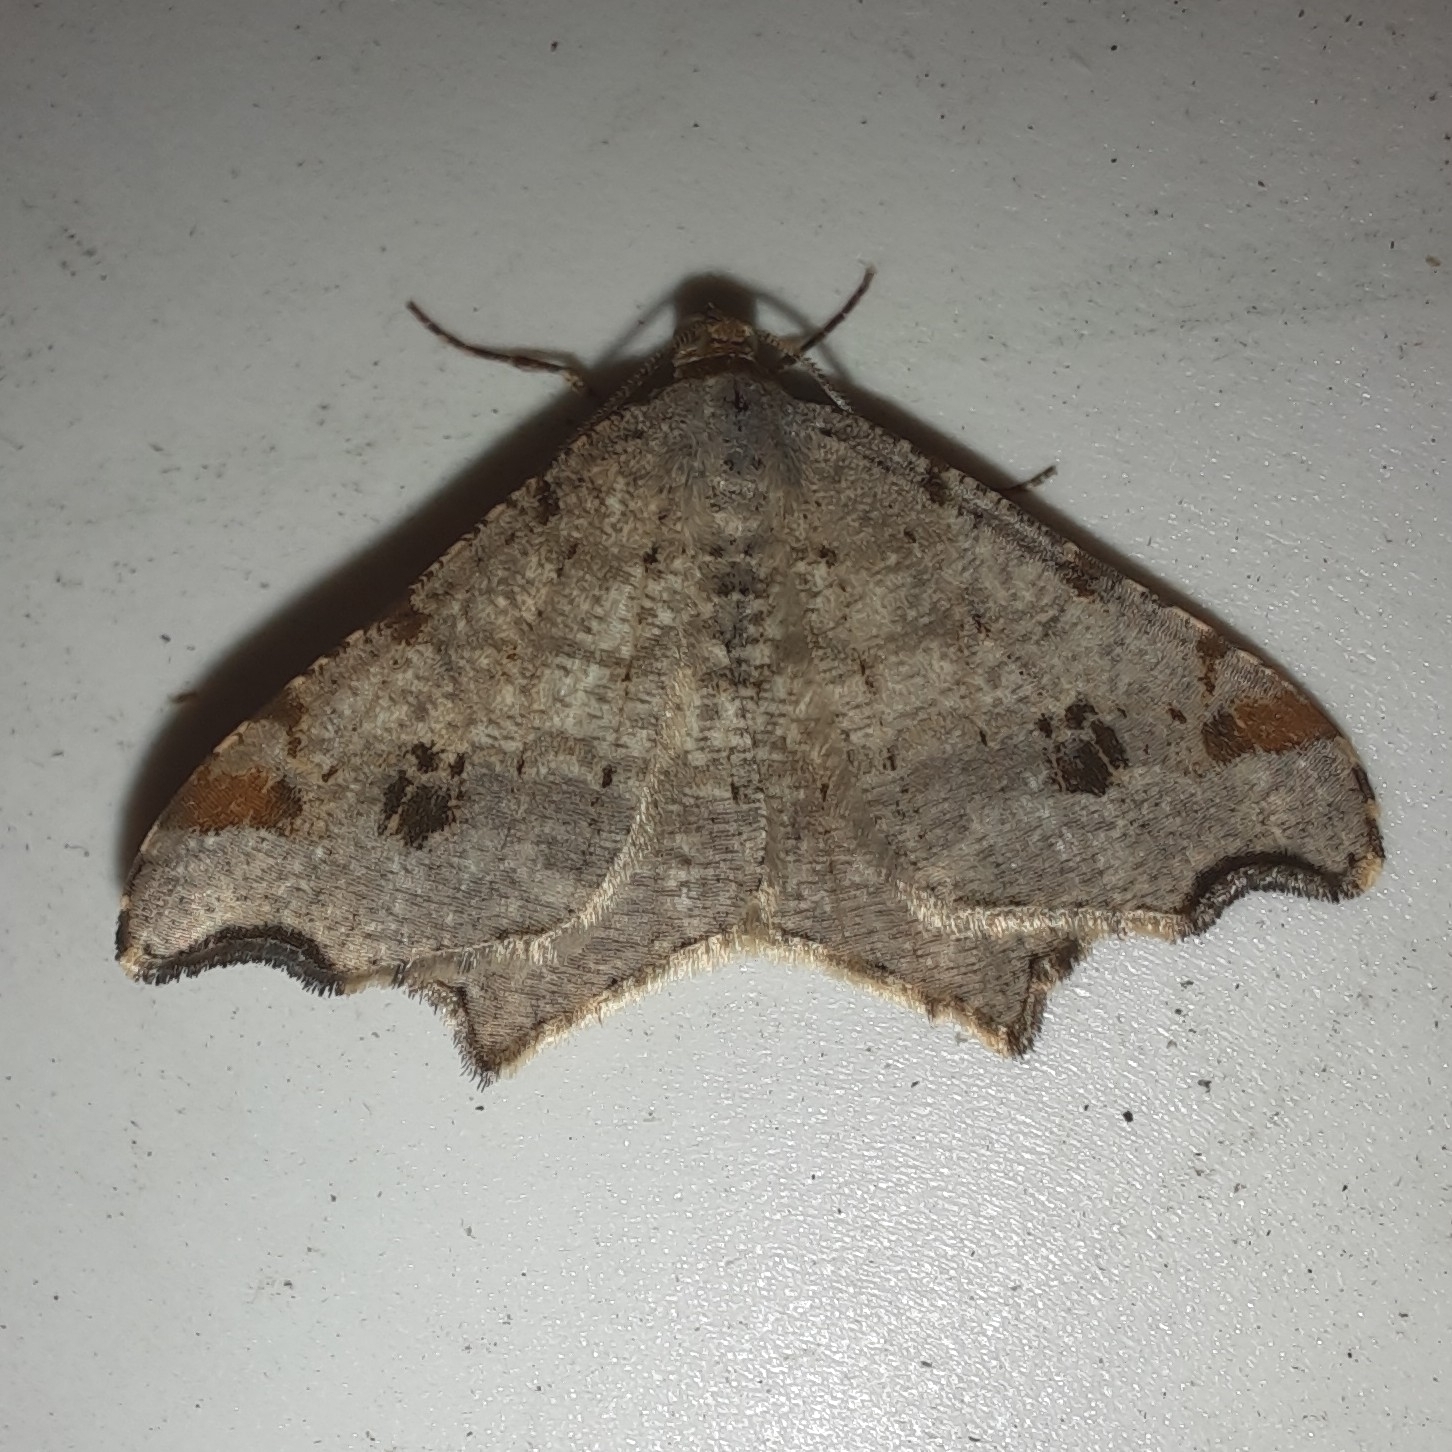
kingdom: Animalia
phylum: Arthropoda
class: Insecta
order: Lepidoptera
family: Geometridae
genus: Macaria
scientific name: Macaria alternata
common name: Sharp-angled peacock
